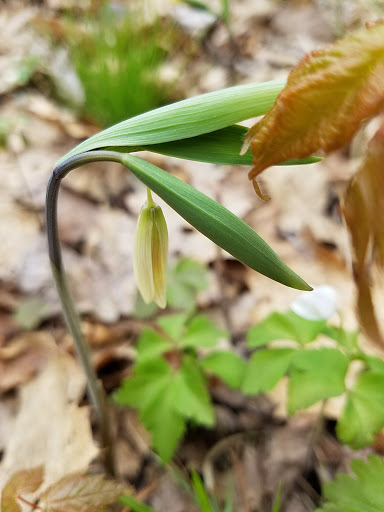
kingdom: Plantae
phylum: Tracheophyta
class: Liliopsida
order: Liliales
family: Colchicaceae
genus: Uvularia
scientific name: Uvularia sessilifolia
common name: Straw-lily
